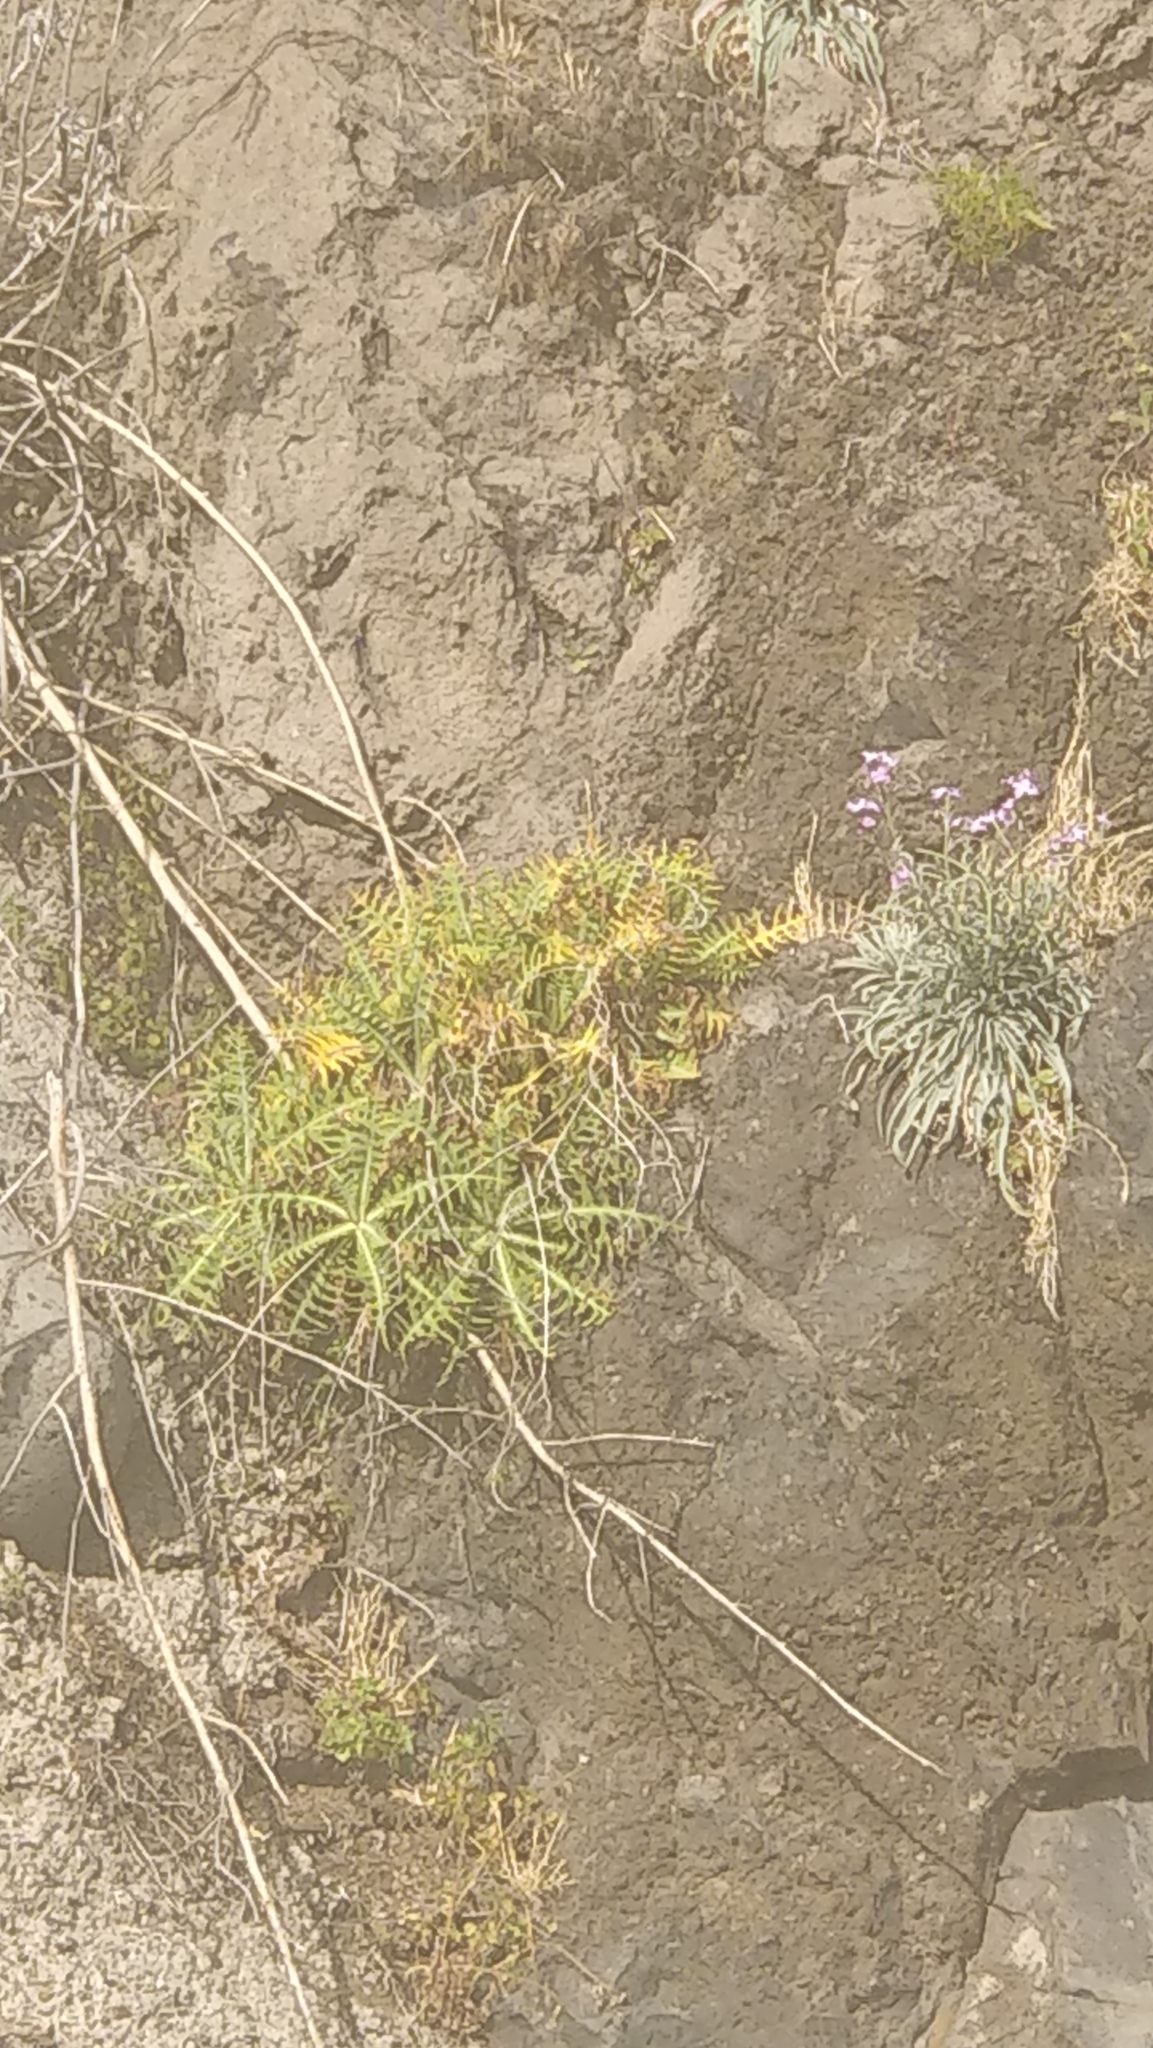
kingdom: Plantae
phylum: Tracheophyta
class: Magnoliopsida
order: Asterales
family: Asteraceae
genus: Sonchus
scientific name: Sonchus ustulatus
